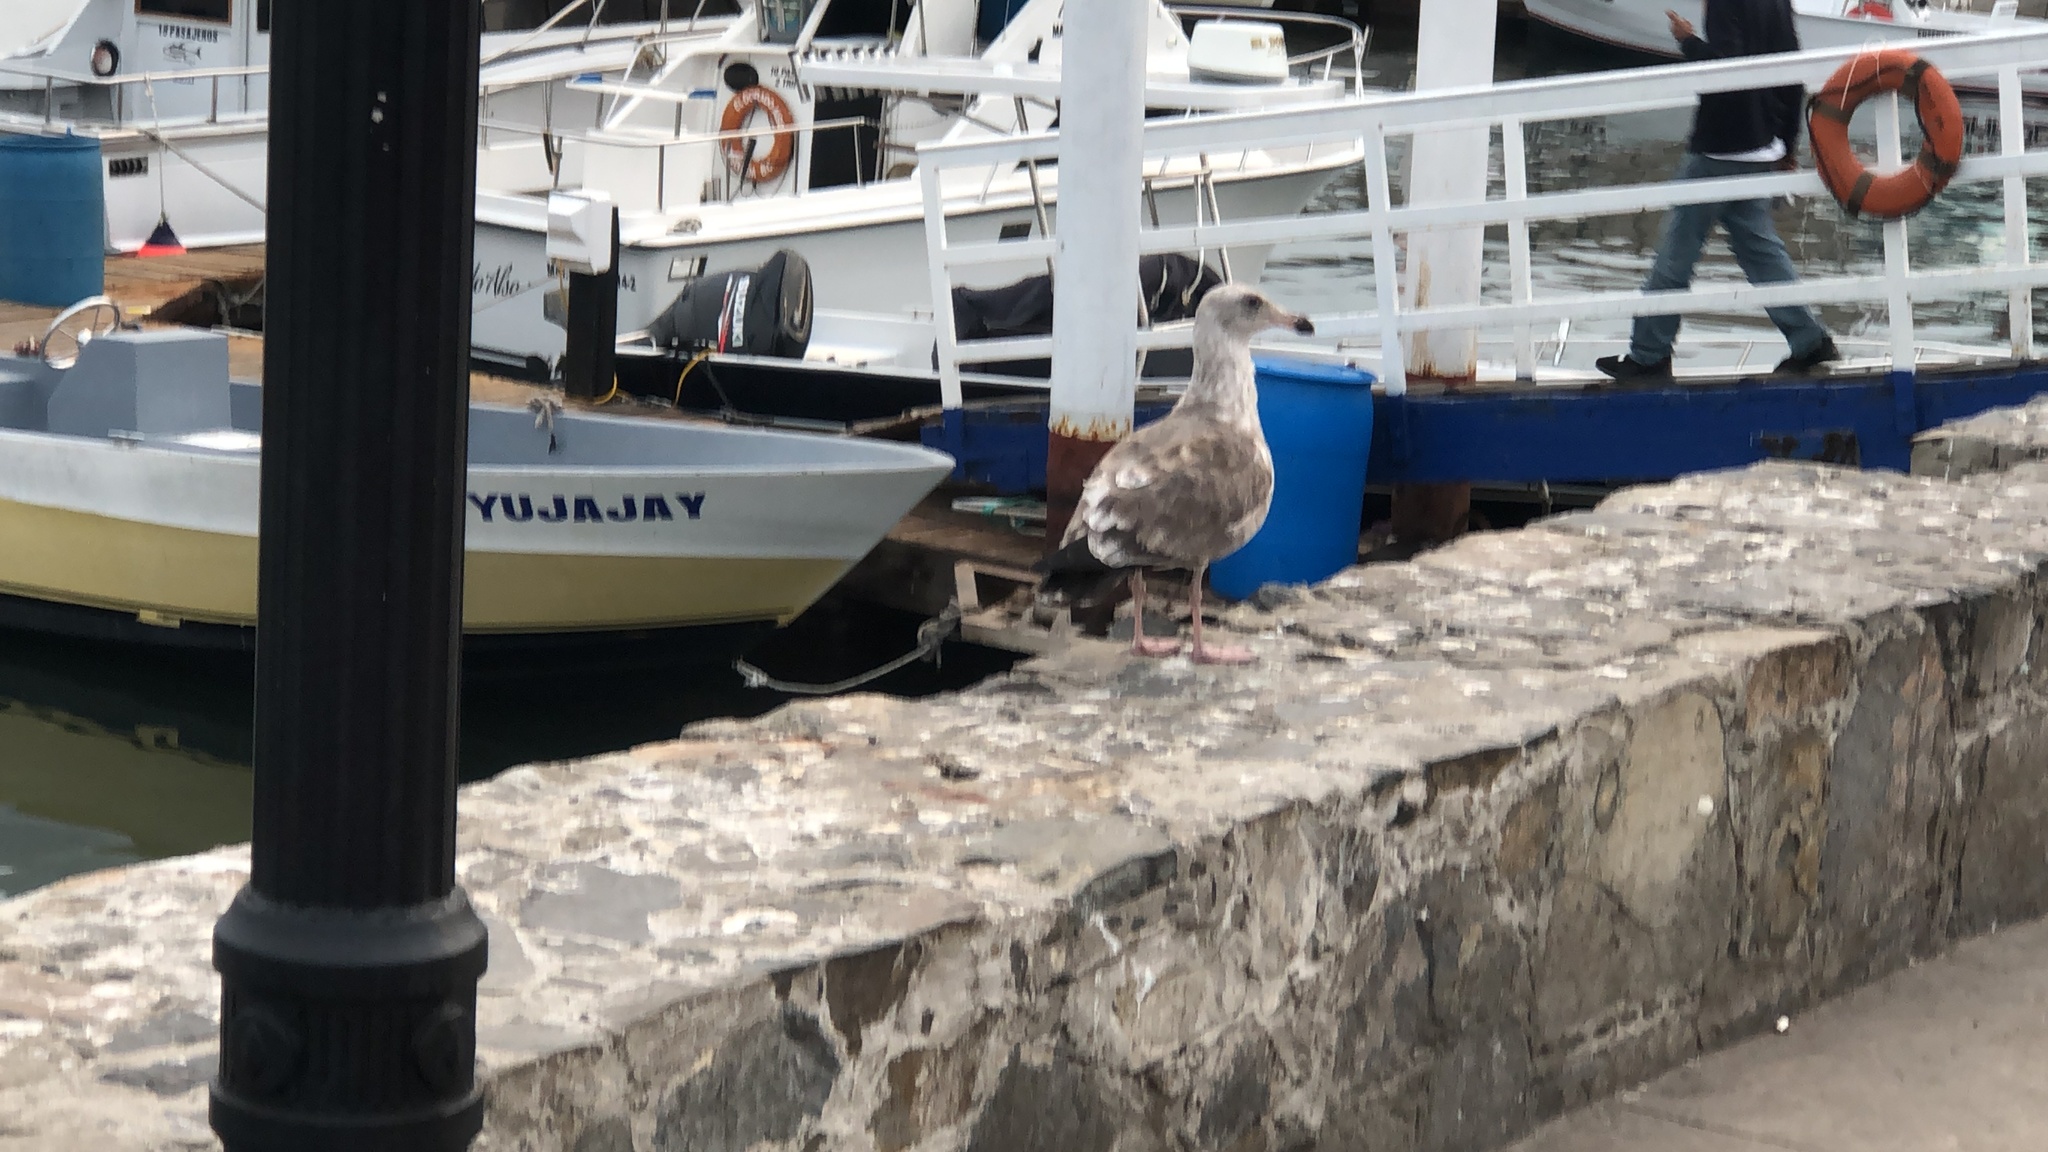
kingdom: Animalia
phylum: Chordata
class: Aves
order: Charadriiformes
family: Laridae
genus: Larus
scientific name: Larus occidentalis
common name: Western gull
